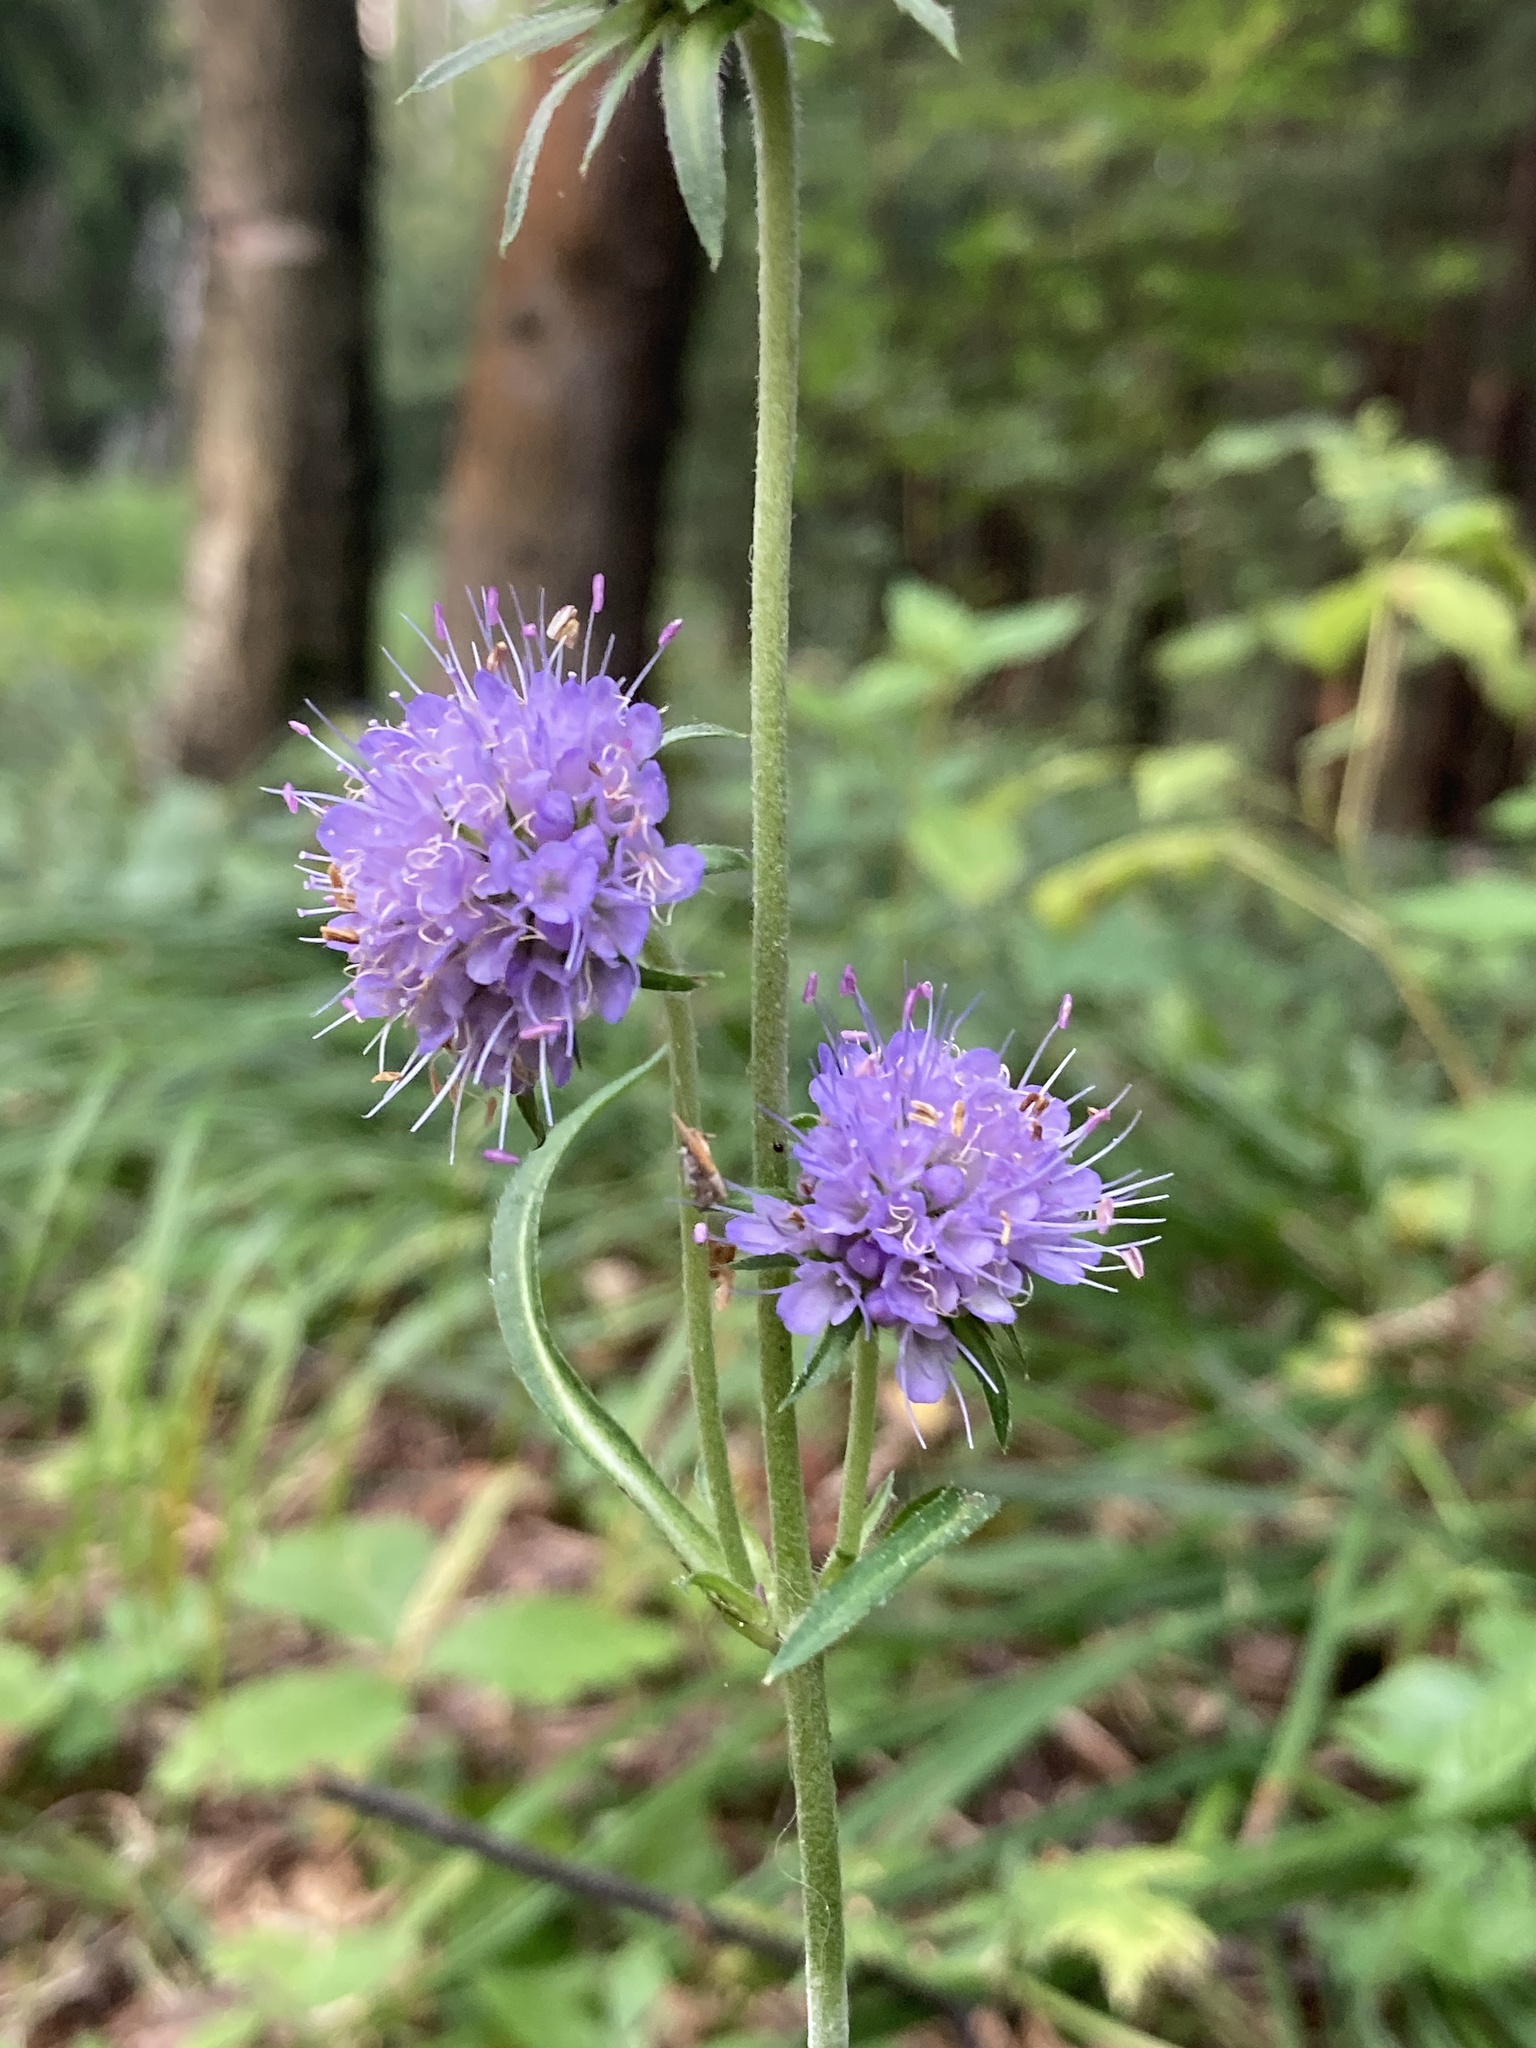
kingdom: Plantae
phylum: Tracheophyta
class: Magnoliopsida
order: Dipsacales
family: Caprifoliaceae
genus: Succisa
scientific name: Succisa pratensis
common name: Devil's-bit
